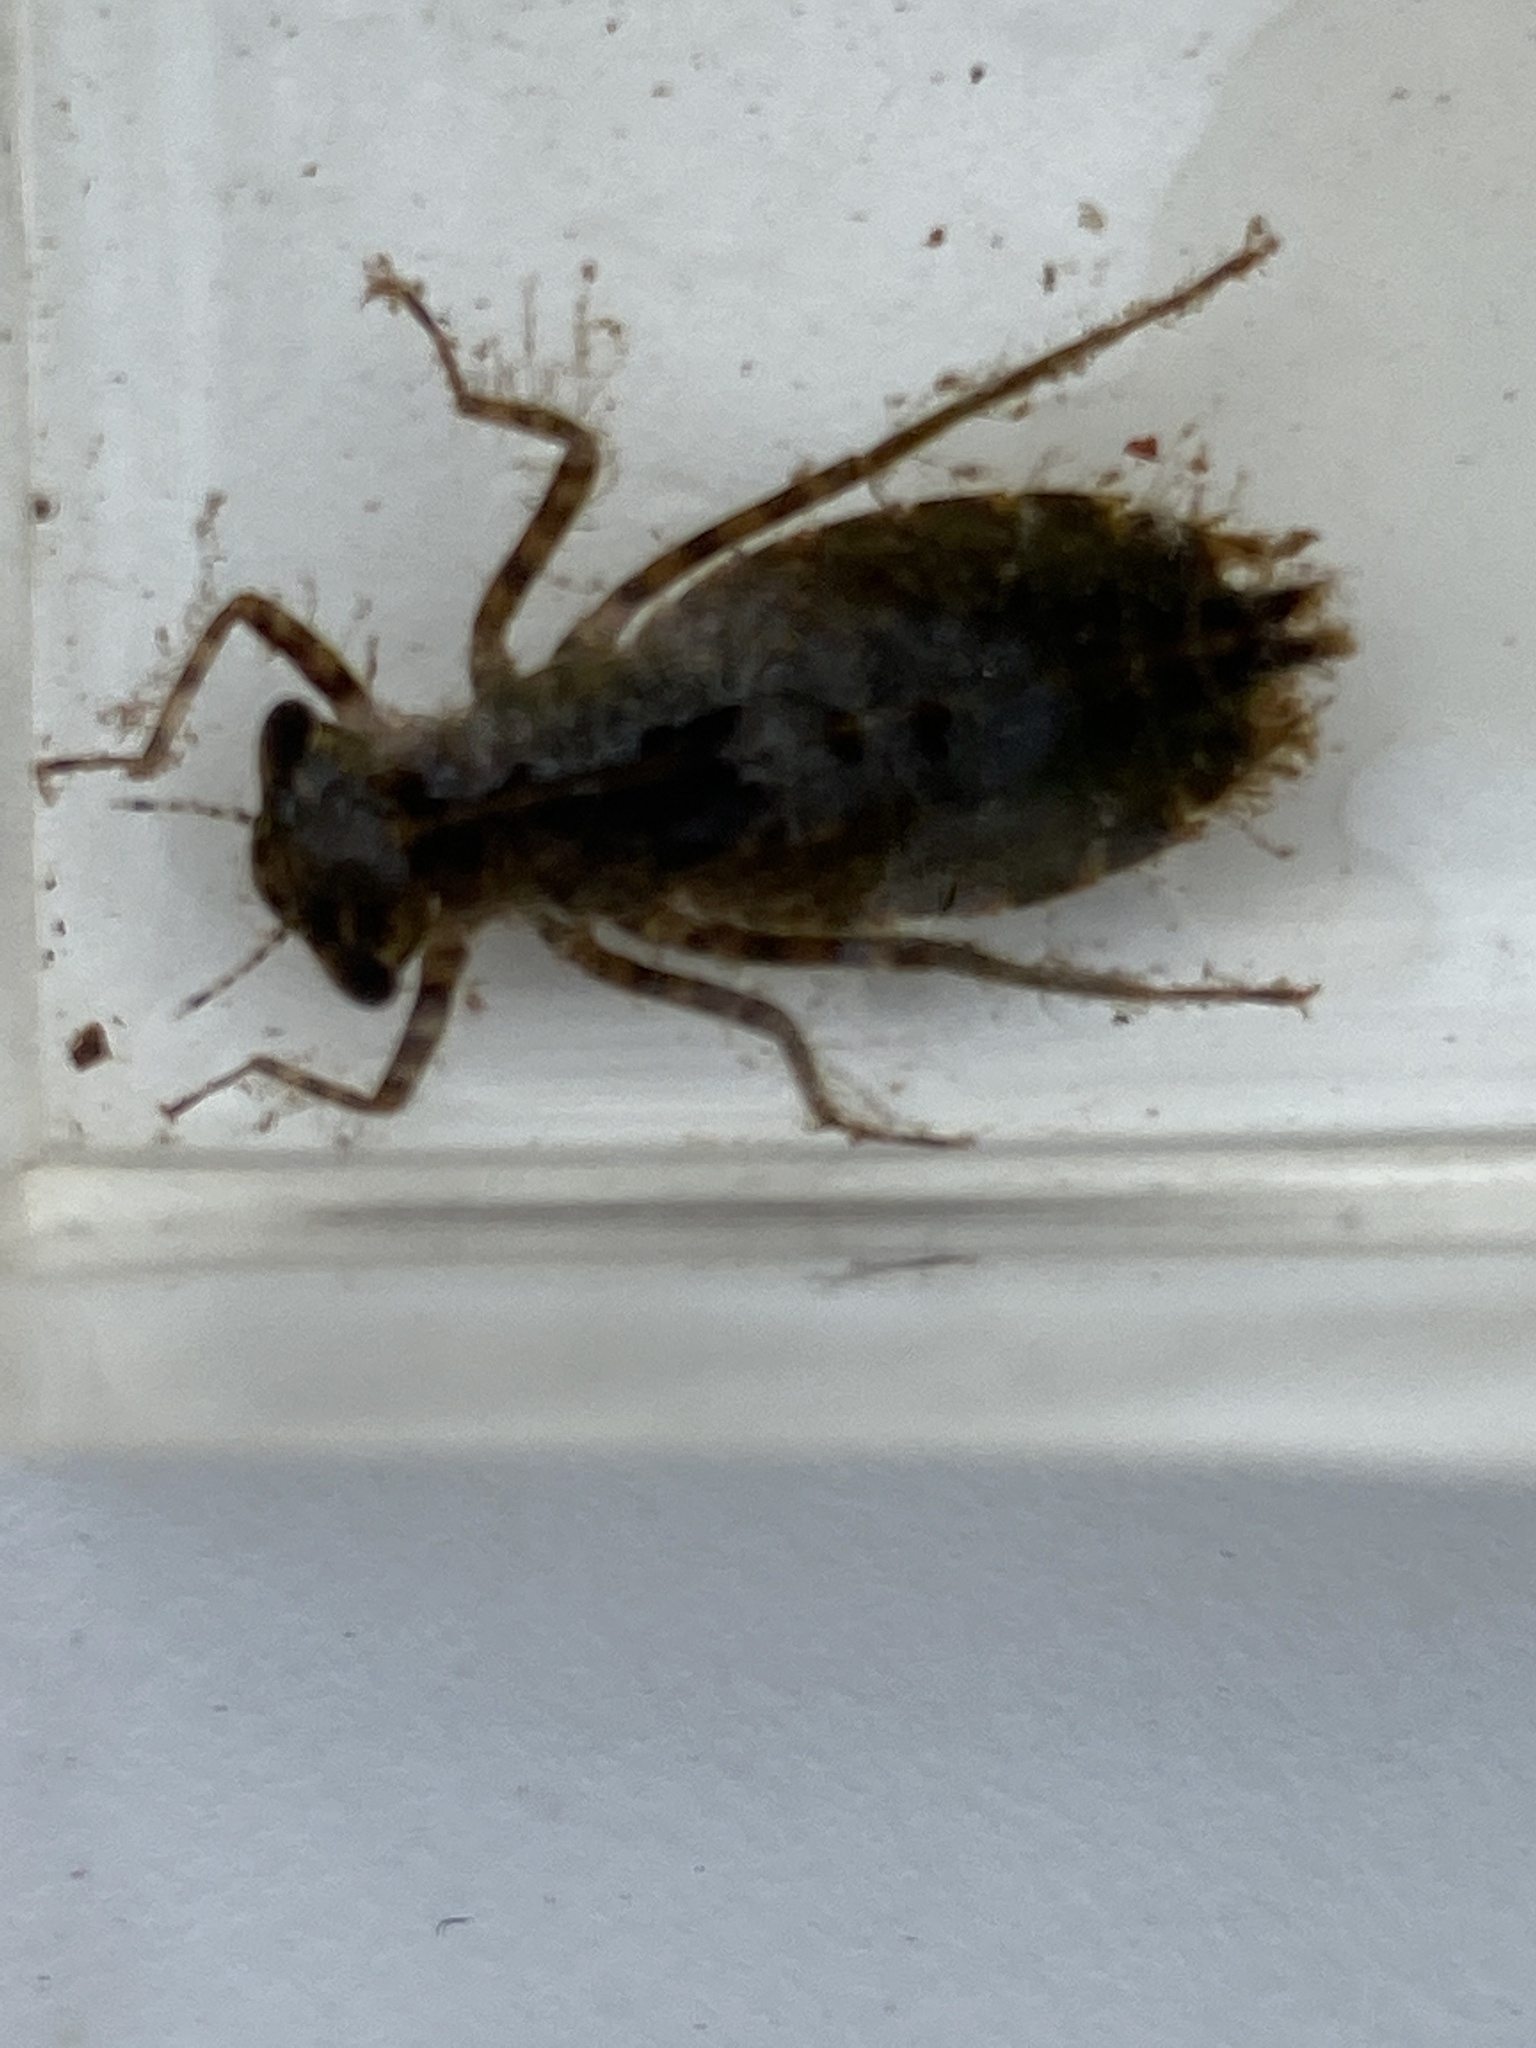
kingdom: Animalia
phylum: Arthropoda
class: Insecta
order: Odonata
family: Libellulidae
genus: Pachydiplax
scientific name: Pachydiplax longipennis
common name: Blue dasher
